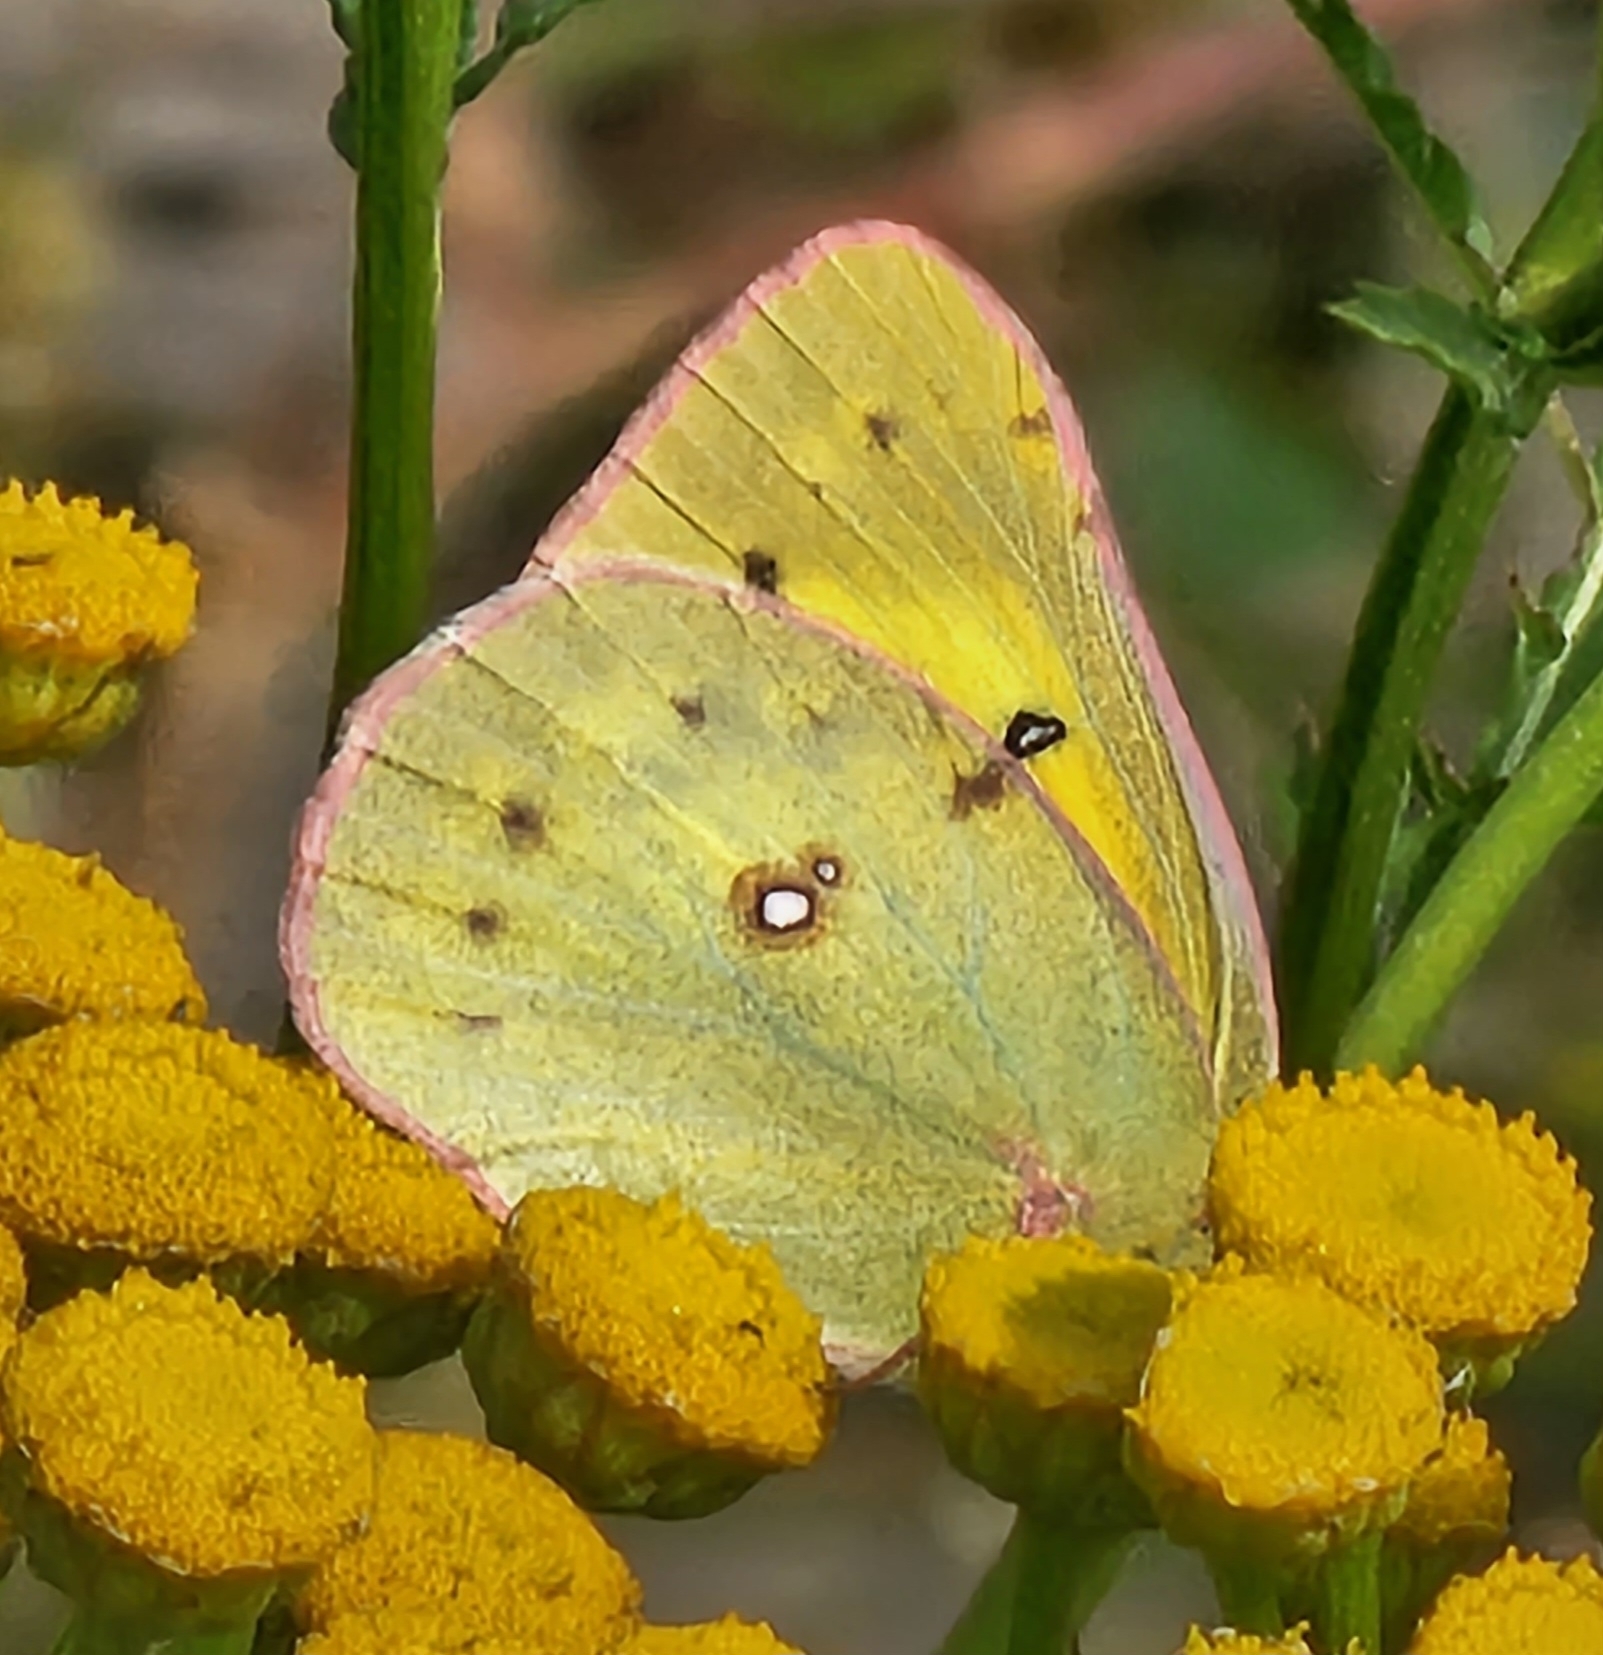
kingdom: Animalia
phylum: Arthropoda
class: Insecta
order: Lepidoptera
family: Pieridae
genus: Colias
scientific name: Colias philodice
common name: Clouded sulphur
